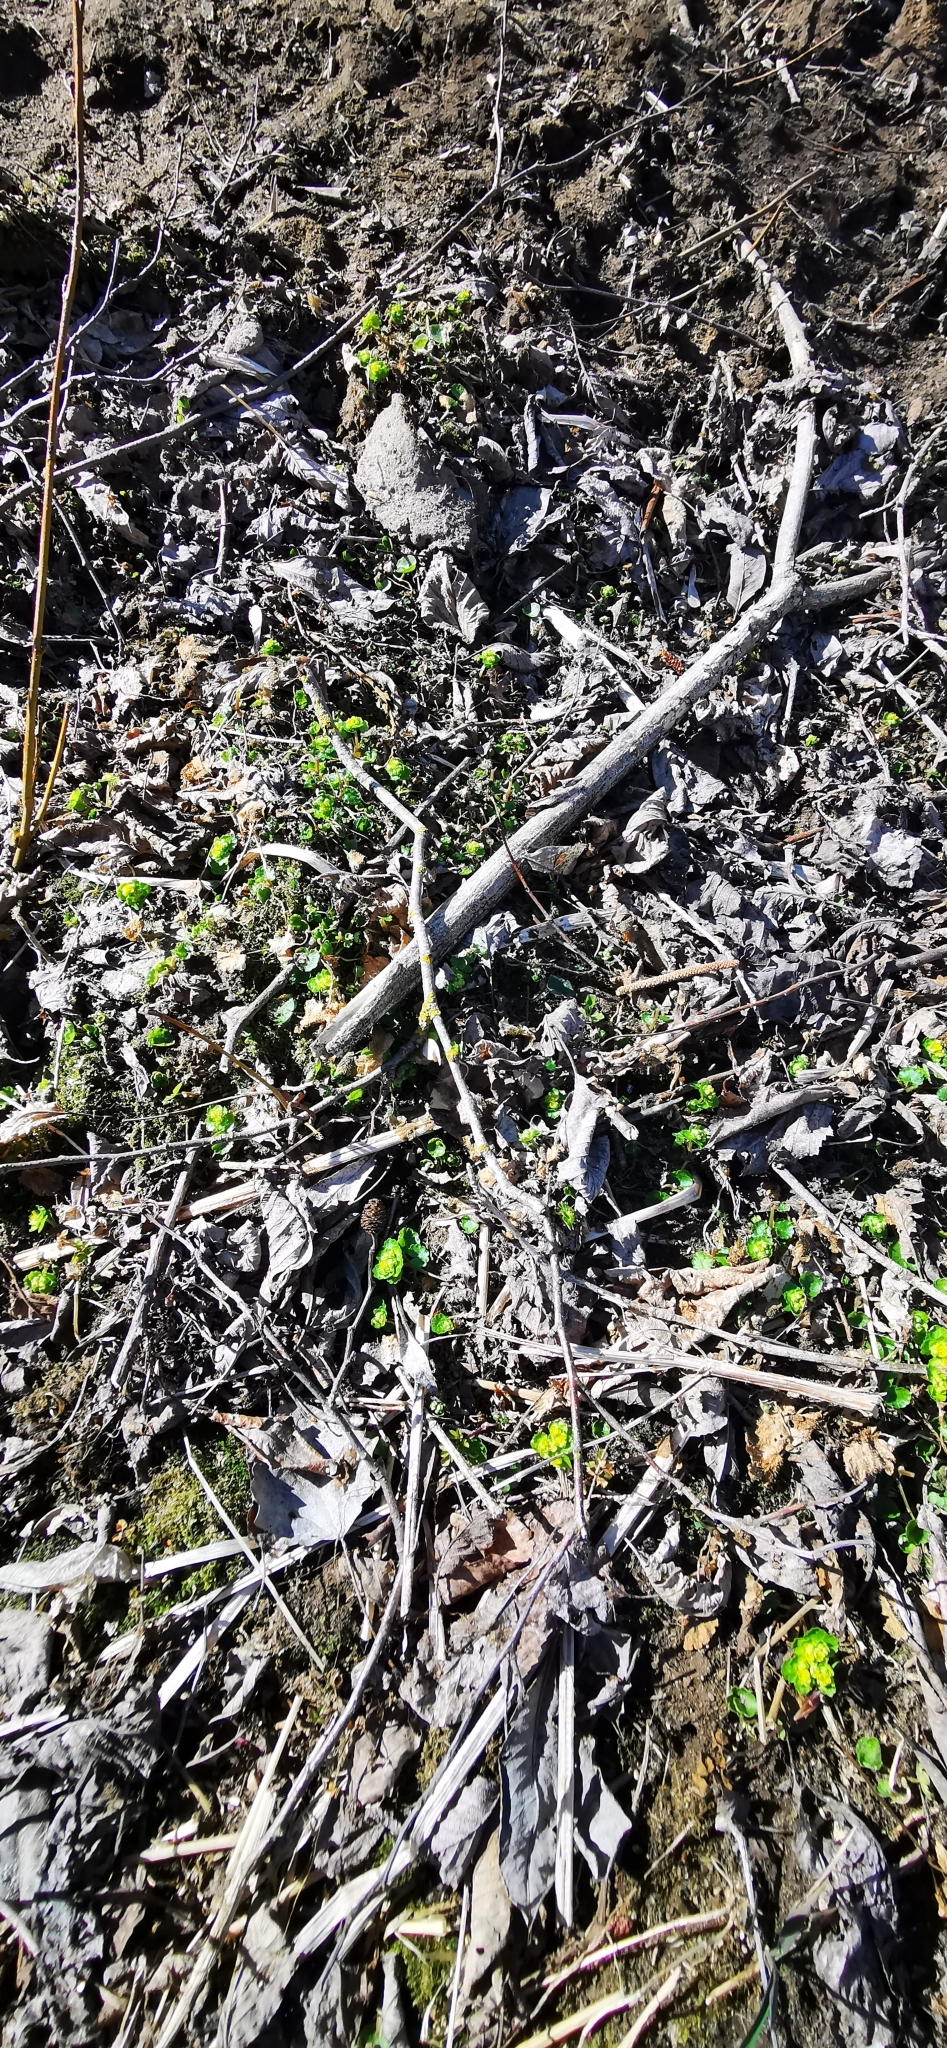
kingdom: Plantae
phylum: Tracheophyta
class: Magnoliopsida
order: Saxifragales
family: Saxifragaceae
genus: Chrysosplenium
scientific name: Chrysosplenium alternifolium
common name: Alternate-leaved golden-saxifrage
